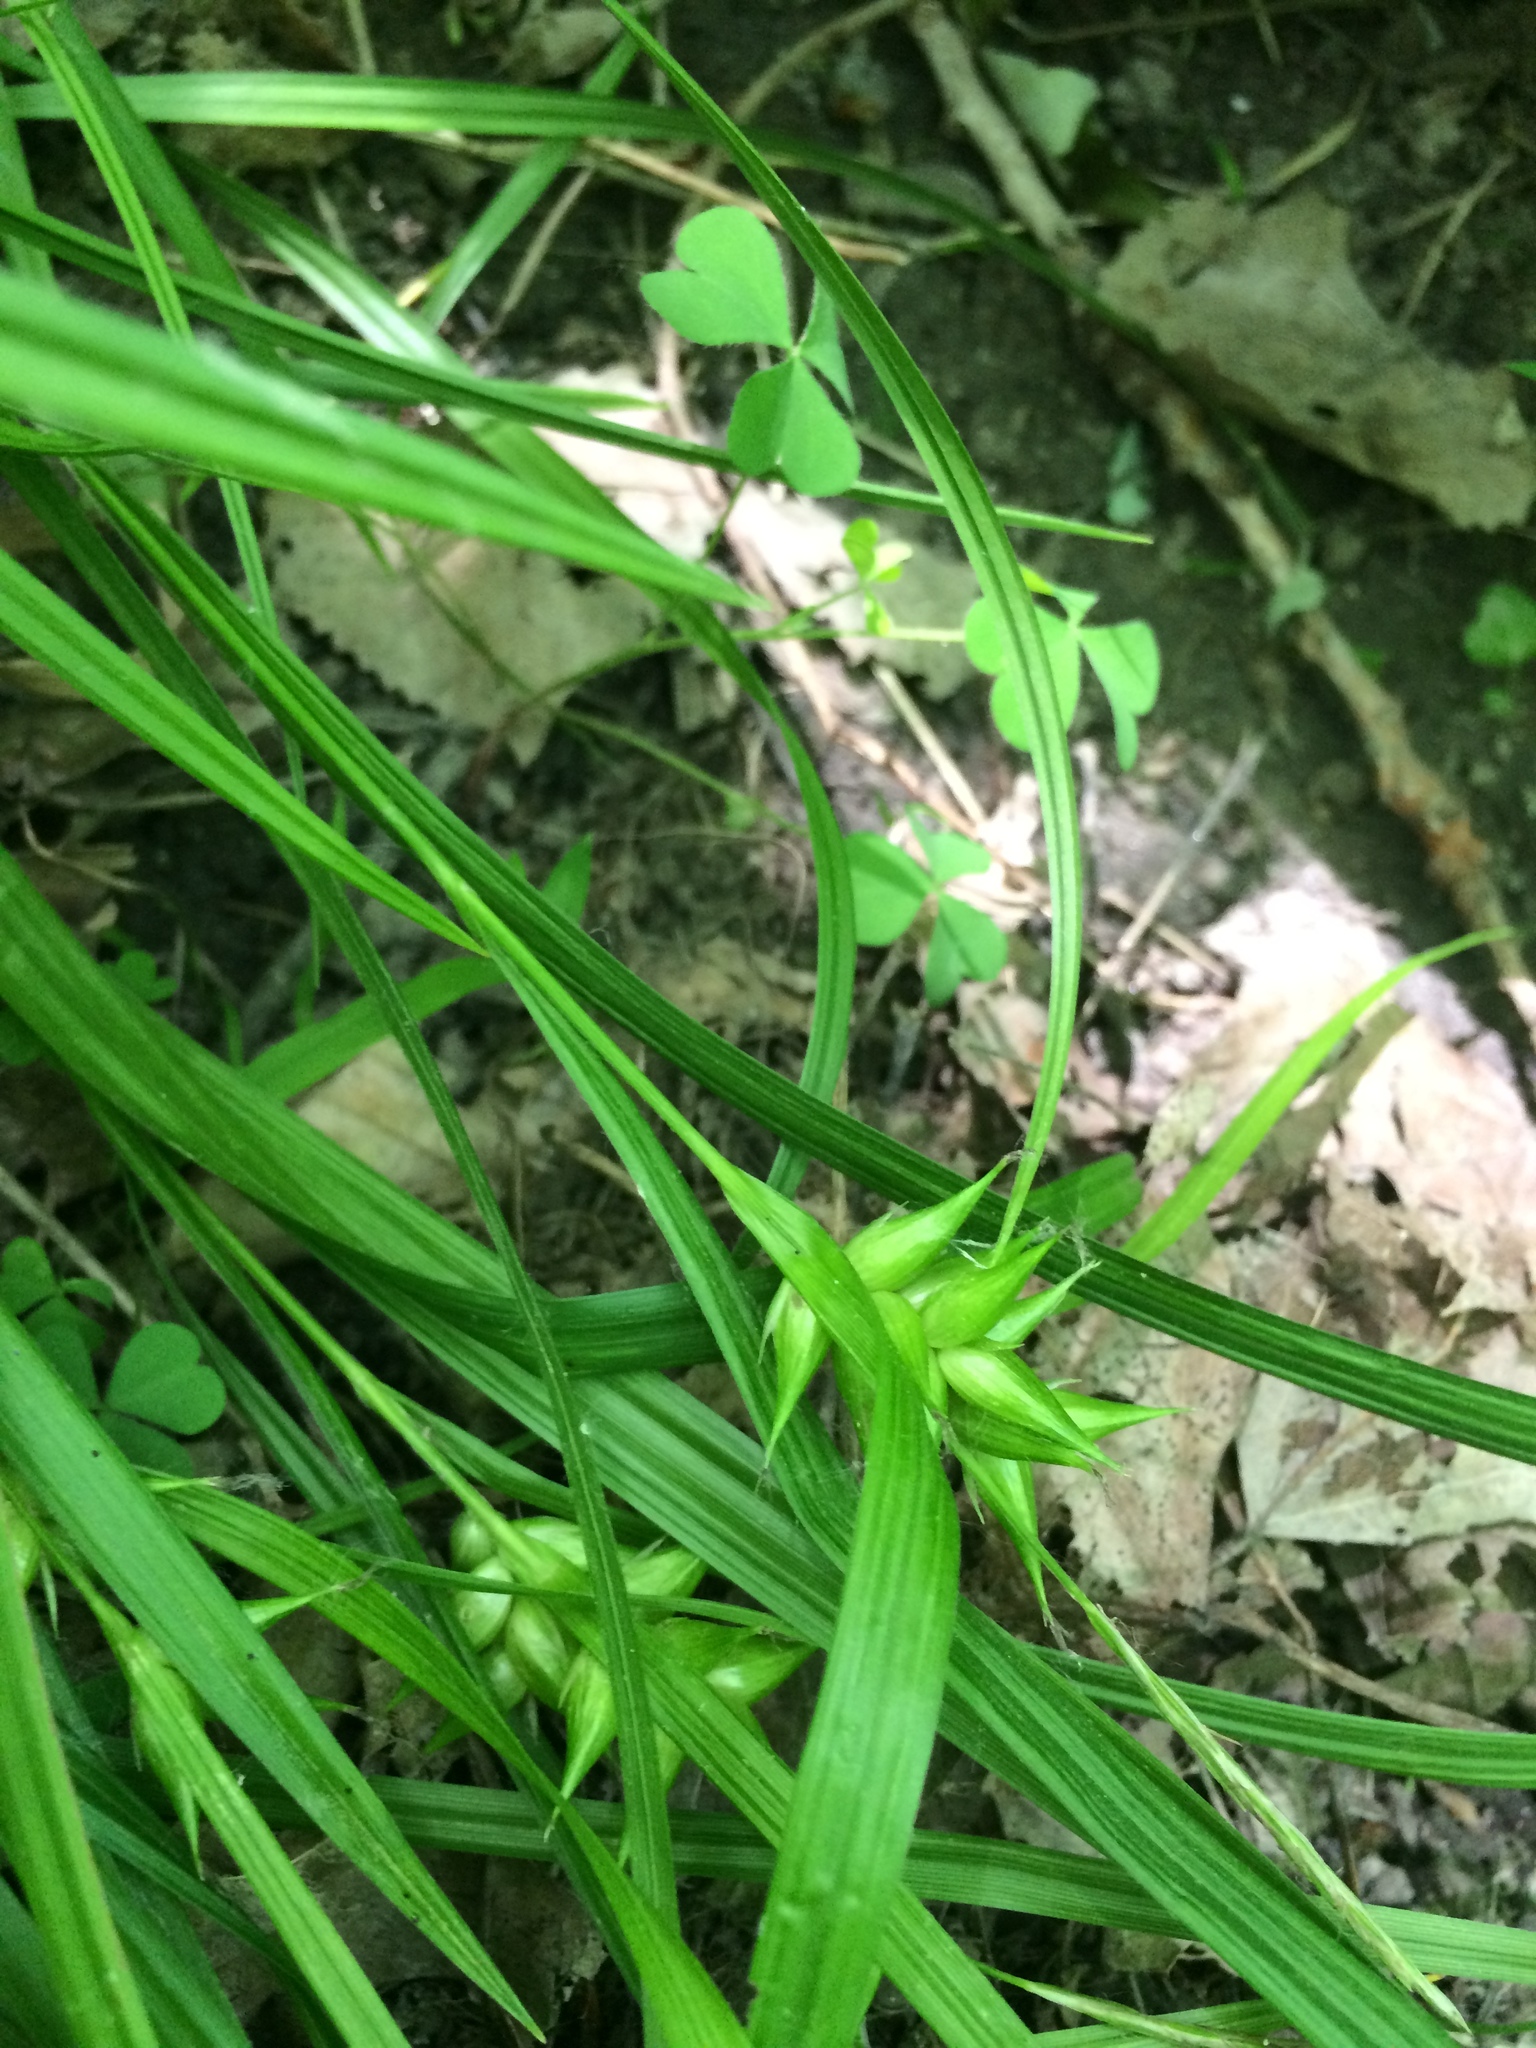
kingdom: Plantae
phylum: Tracheophyta
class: Liliopsida
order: Poales
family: Cyperaceae
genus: Carex
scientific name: Carex intumescens
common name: Greater bladder sedge
